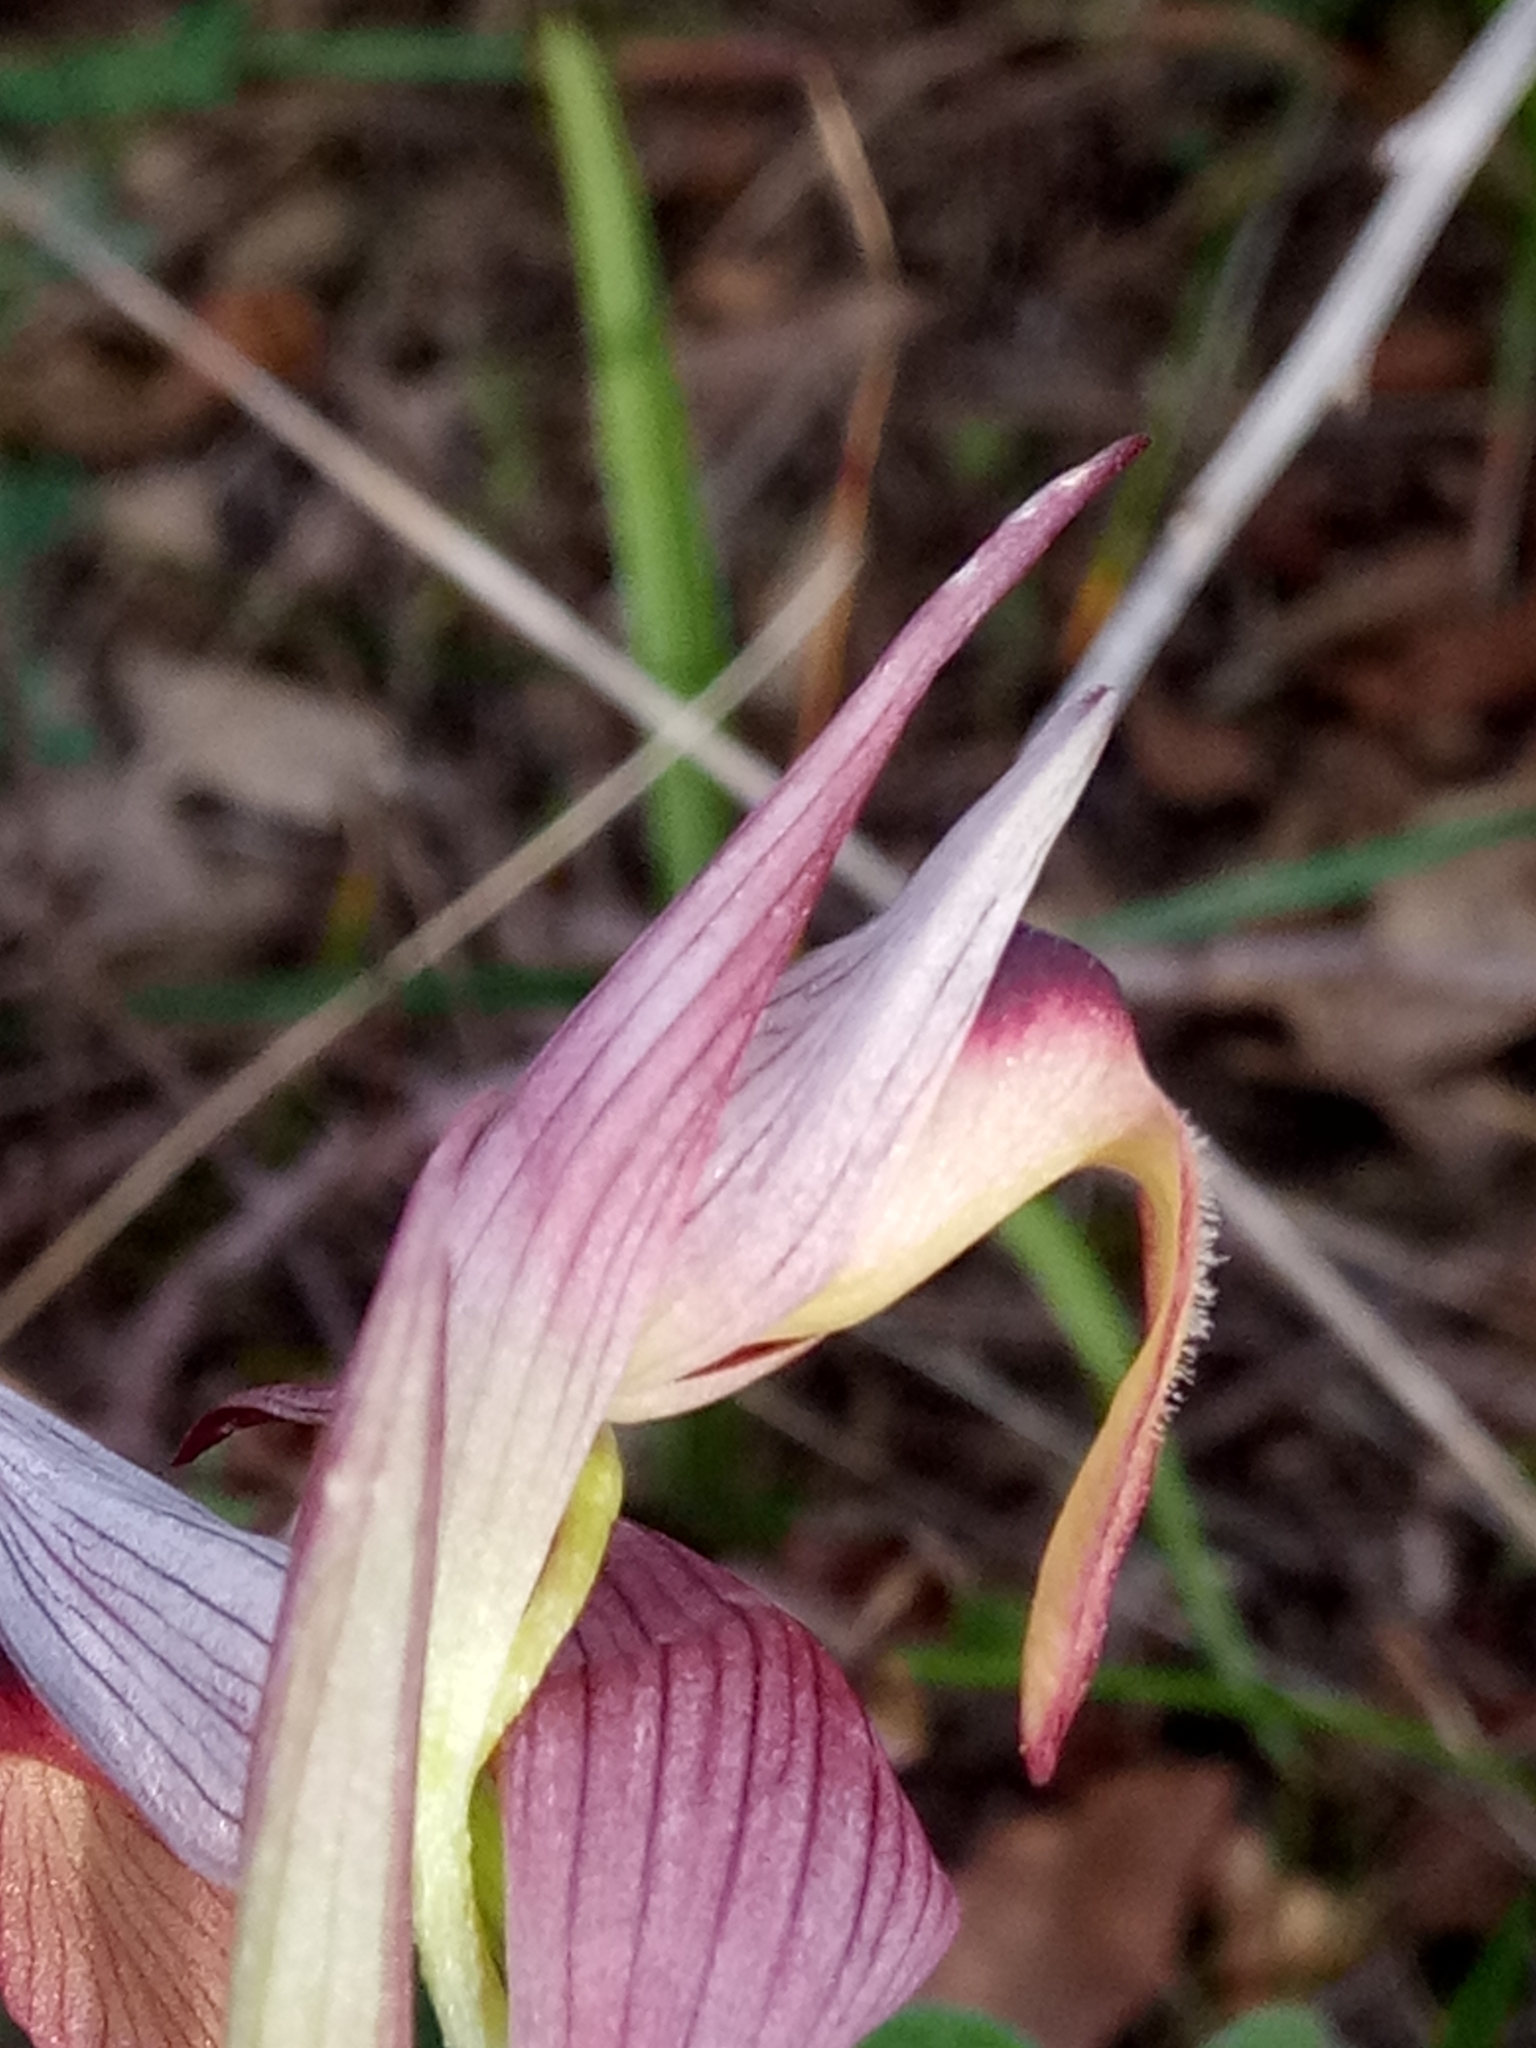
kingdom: Plantae
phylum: Tracheophyta
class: Liliopsida
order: Asparagales
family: Orchidaceae
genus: Serapias
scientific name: Serapias lingua
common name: Tongue-orchid
